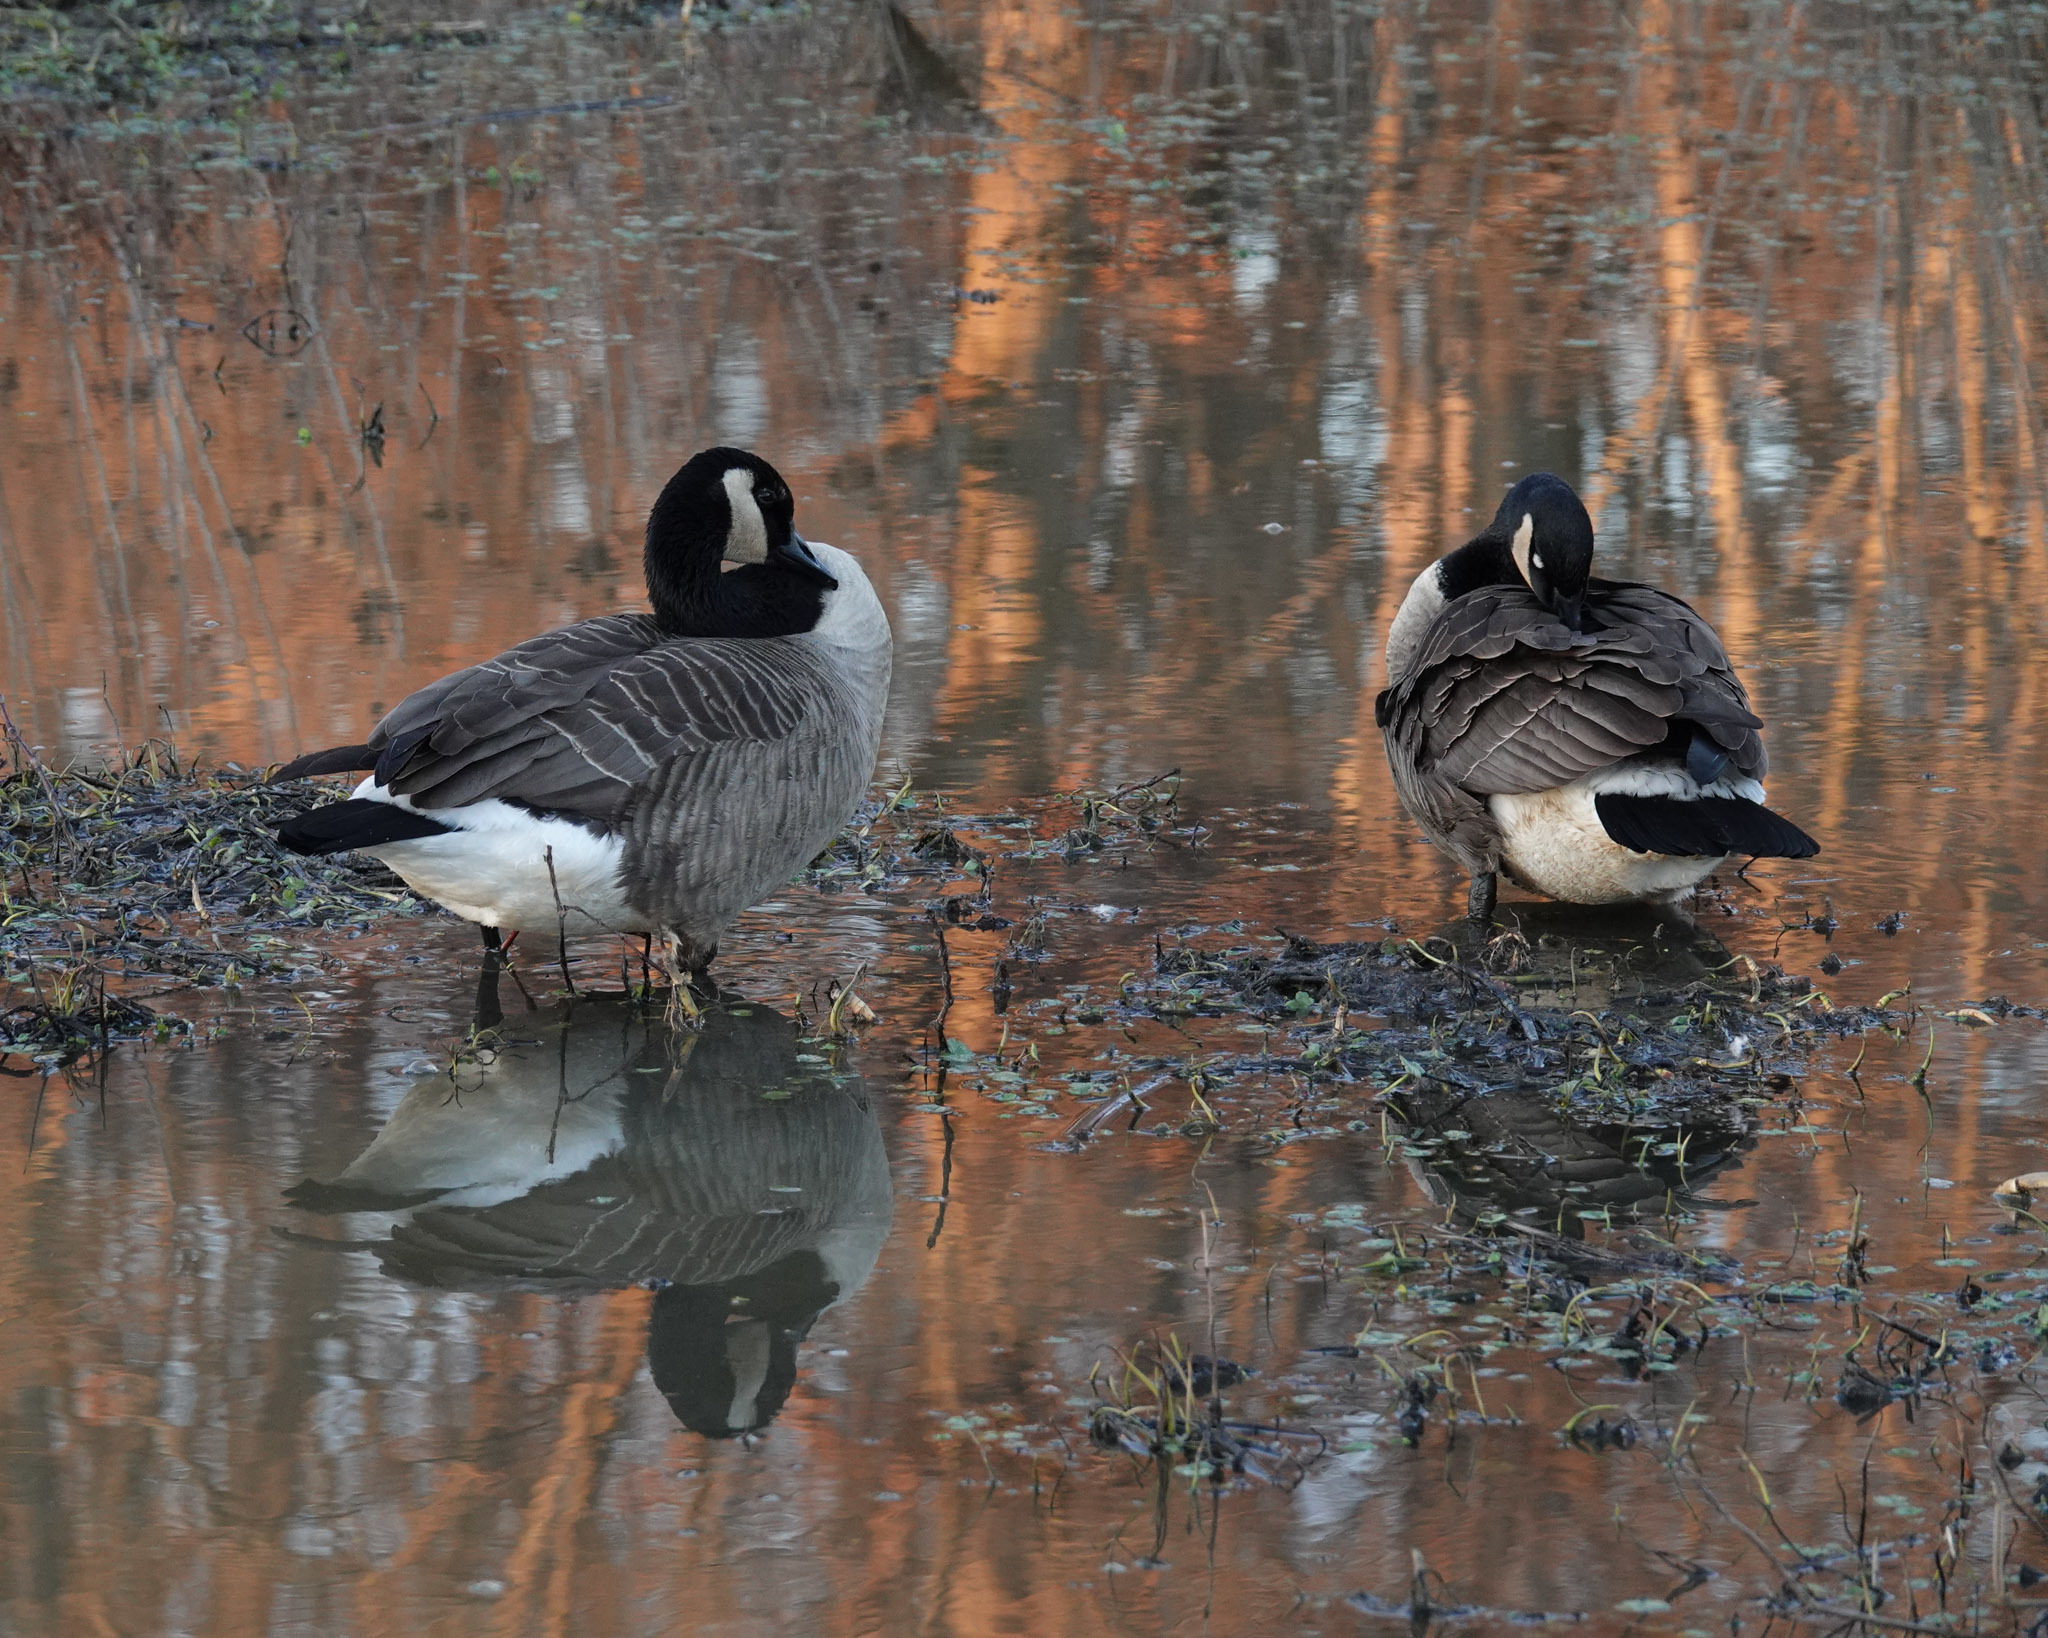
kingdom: Animalia
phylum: Chordata
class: Aves
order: Anseriformes
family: Anatidae
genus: Branta
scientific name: Branta canadensis
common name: Canada goose
